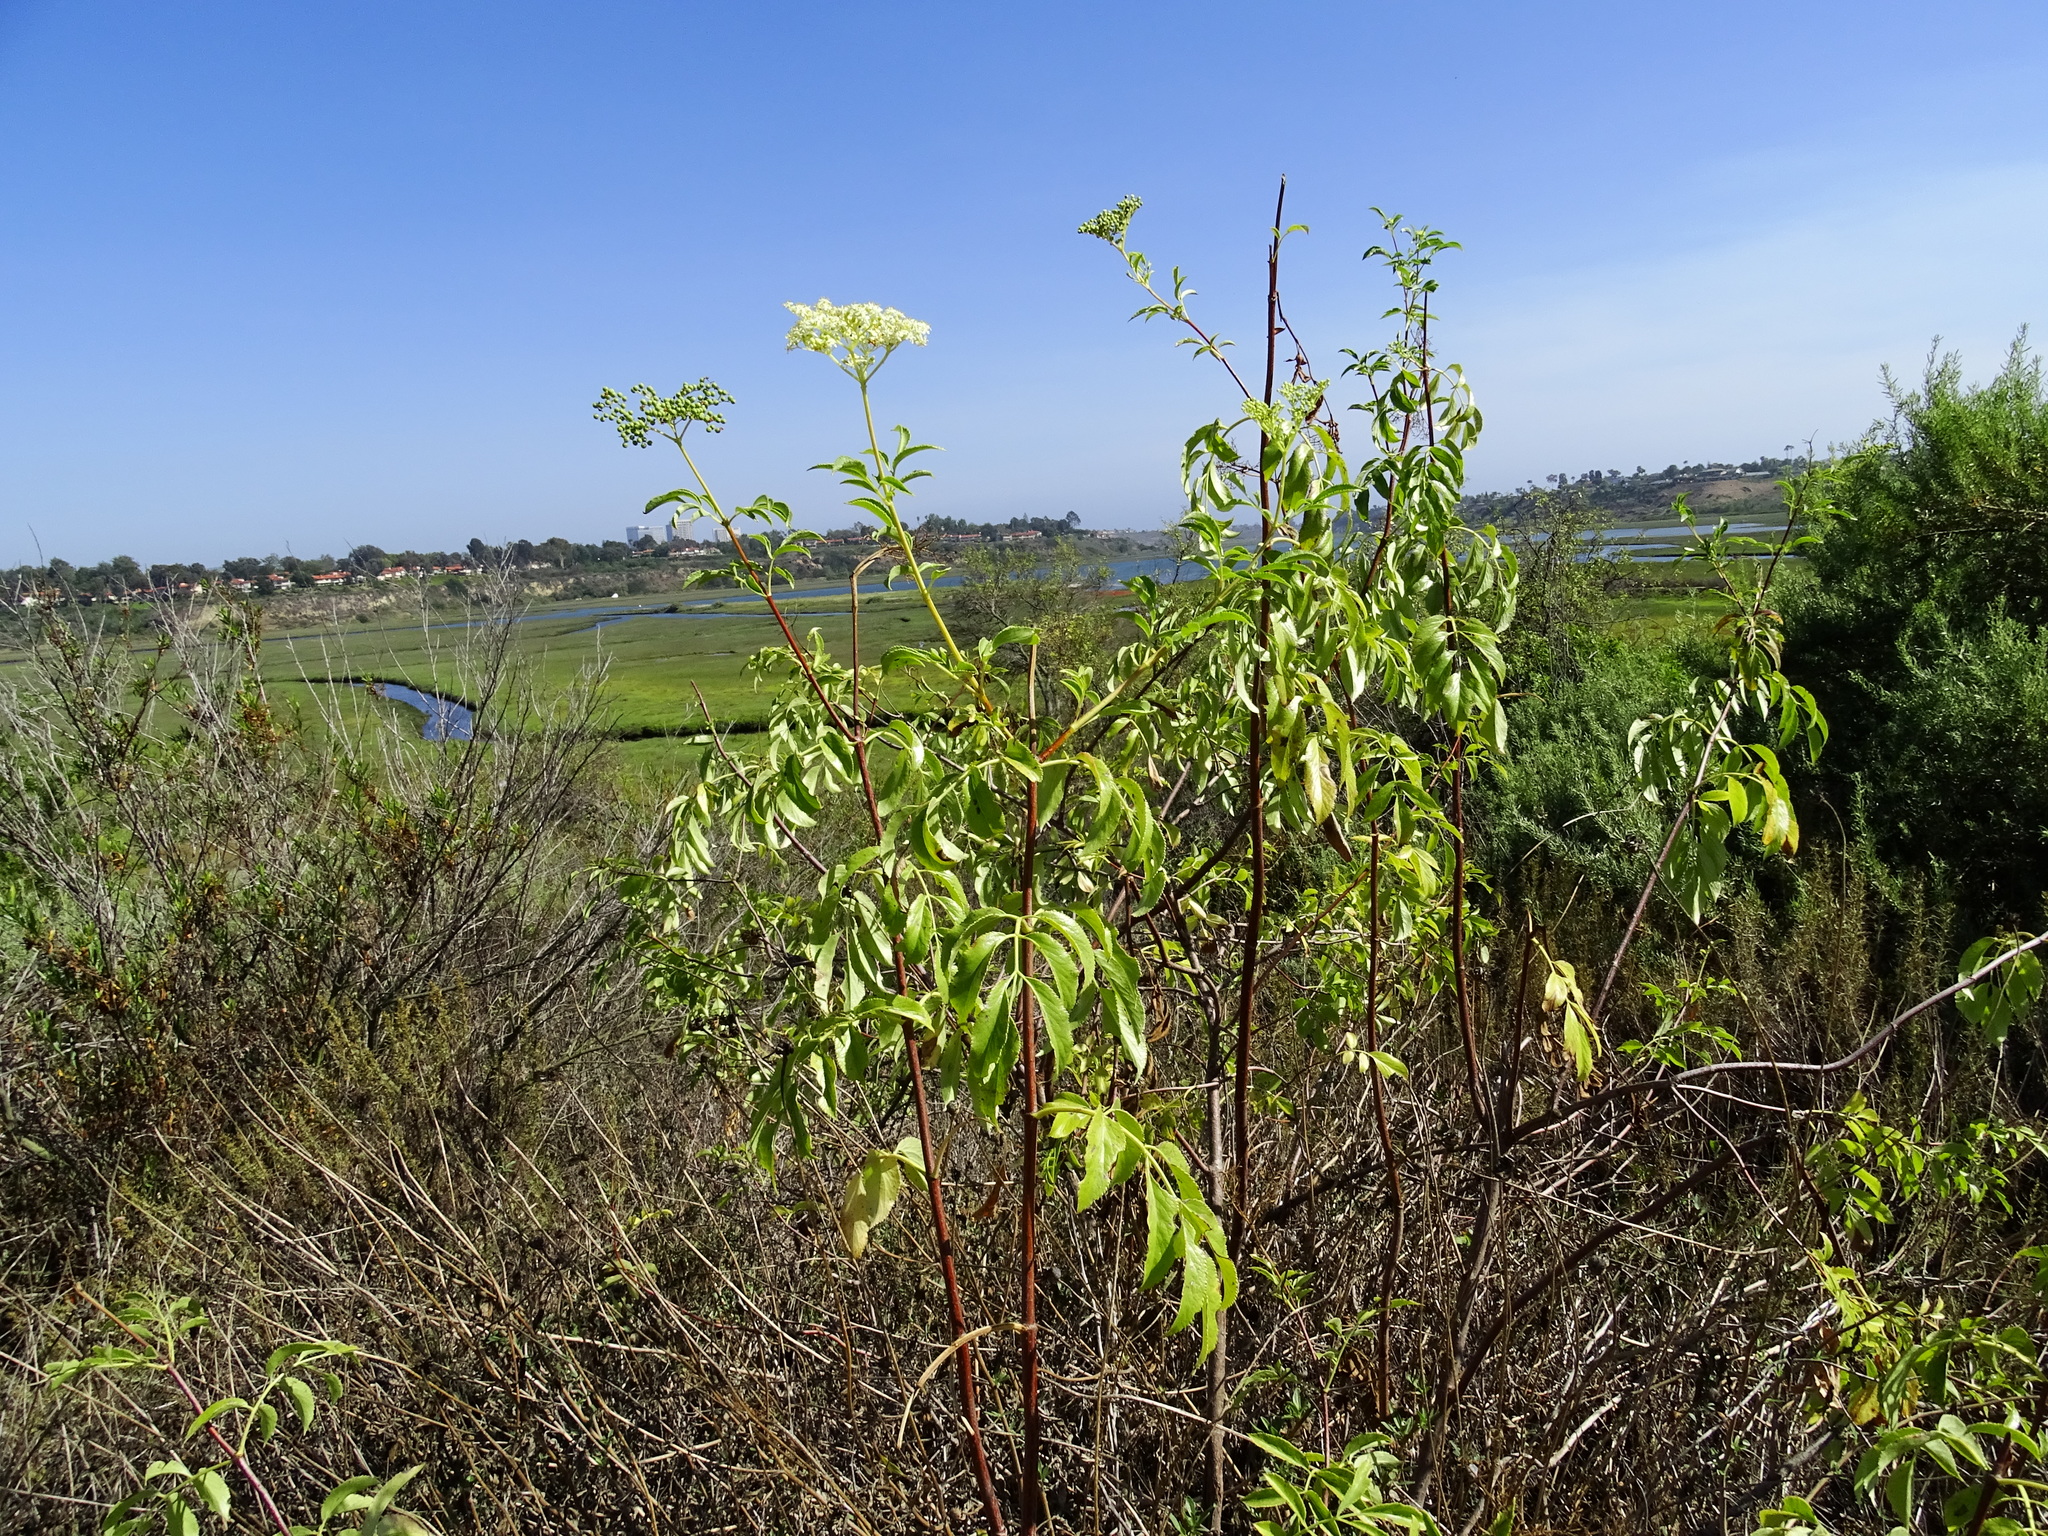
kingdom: Plantae
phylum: Tracheophyta
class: Magnoliopsida
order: Dipsacales
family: Viburnaceae
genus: Sambucus
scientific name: Sambucus cerulea
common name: Blue elder
